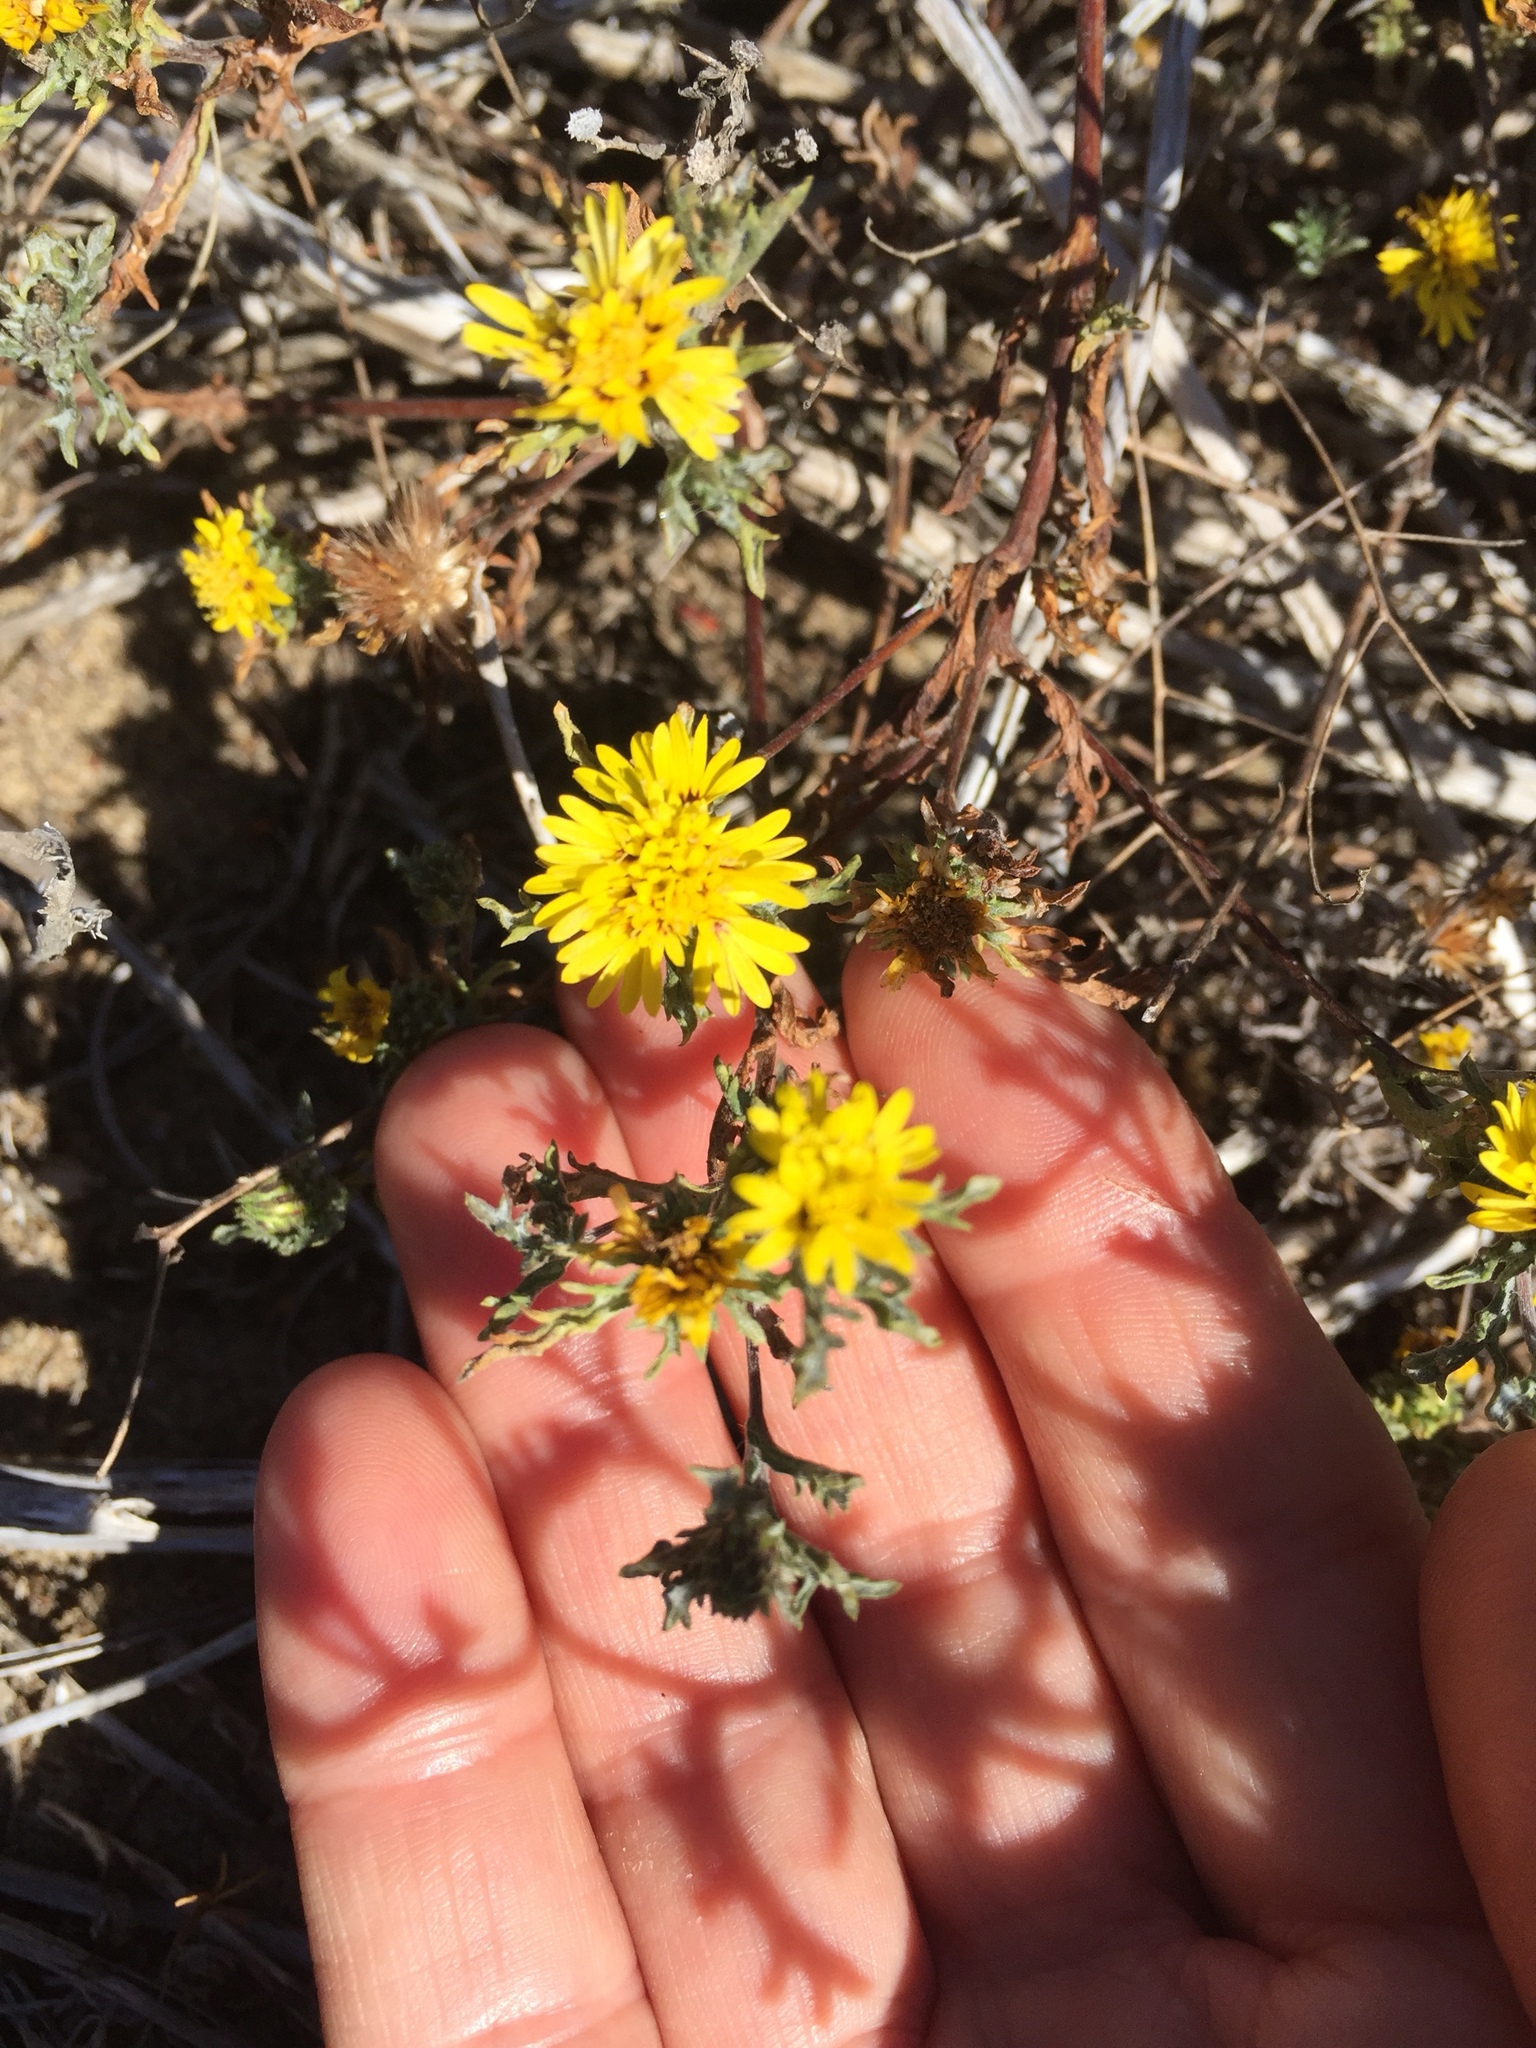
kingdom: Plantae
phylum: Tracheophyta
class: Magnoliopsida
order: Asterales
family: Asteraceae
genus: Lessingia
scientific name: Lessingia germanorum
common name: San francisco lessingia
